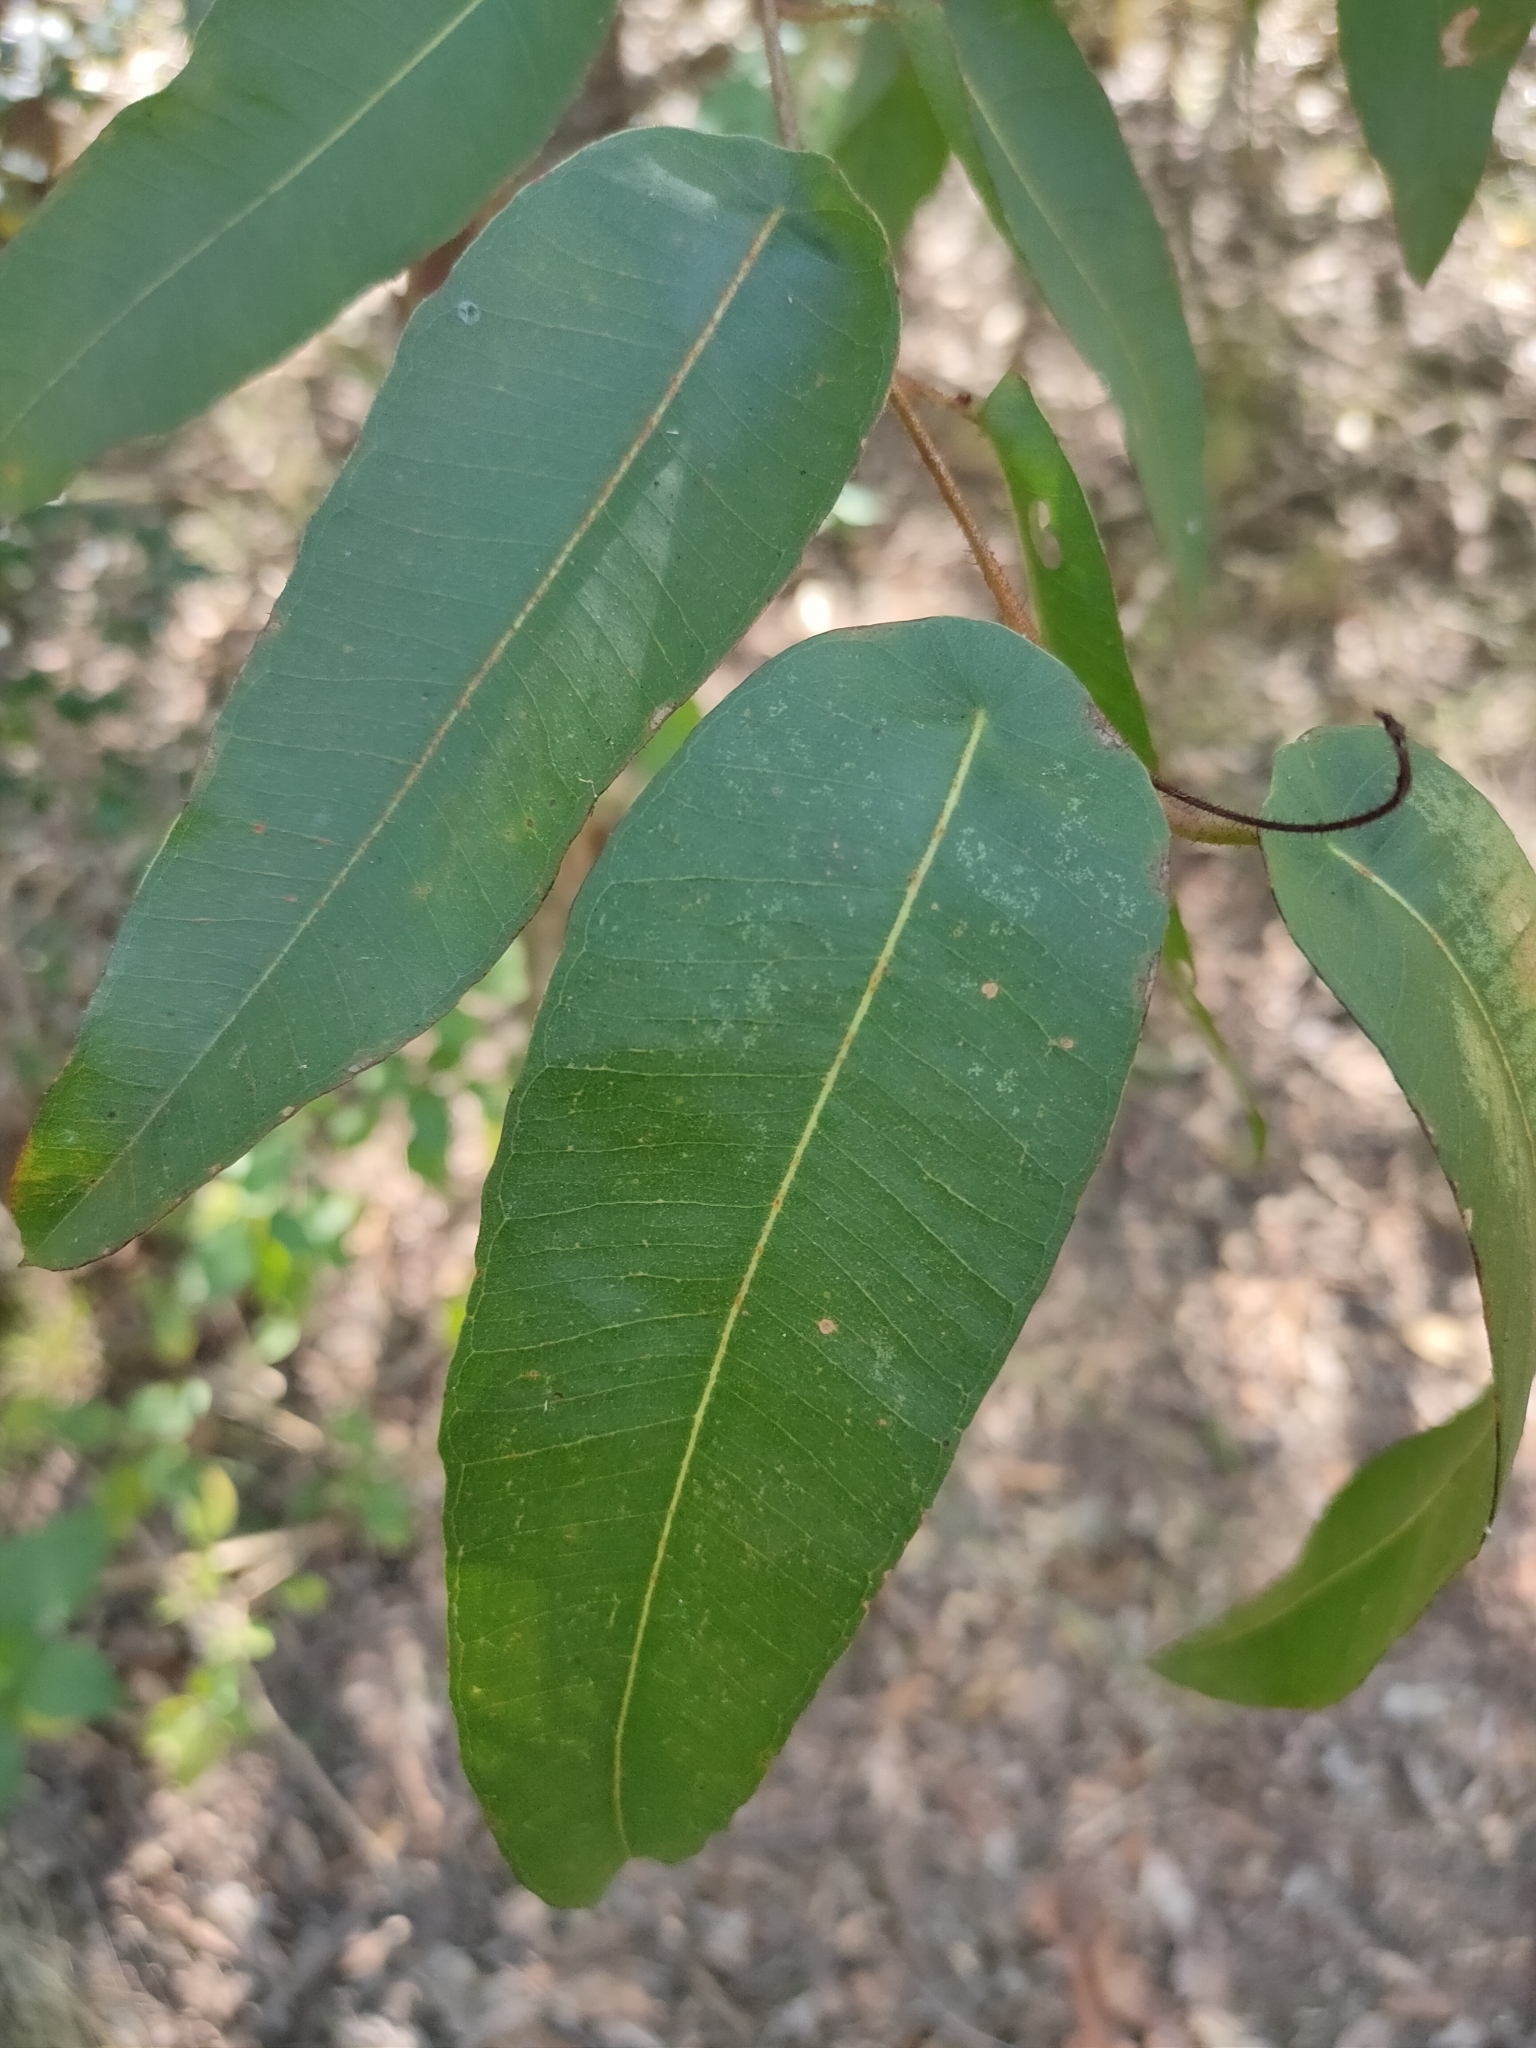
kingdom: Plantae
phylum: Tracheophyta
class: Magnoliopsida
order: Myrtales
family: Myrtaceae
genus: Corymbia
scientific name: Corymbia citriodora
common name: Lemonscented gum
